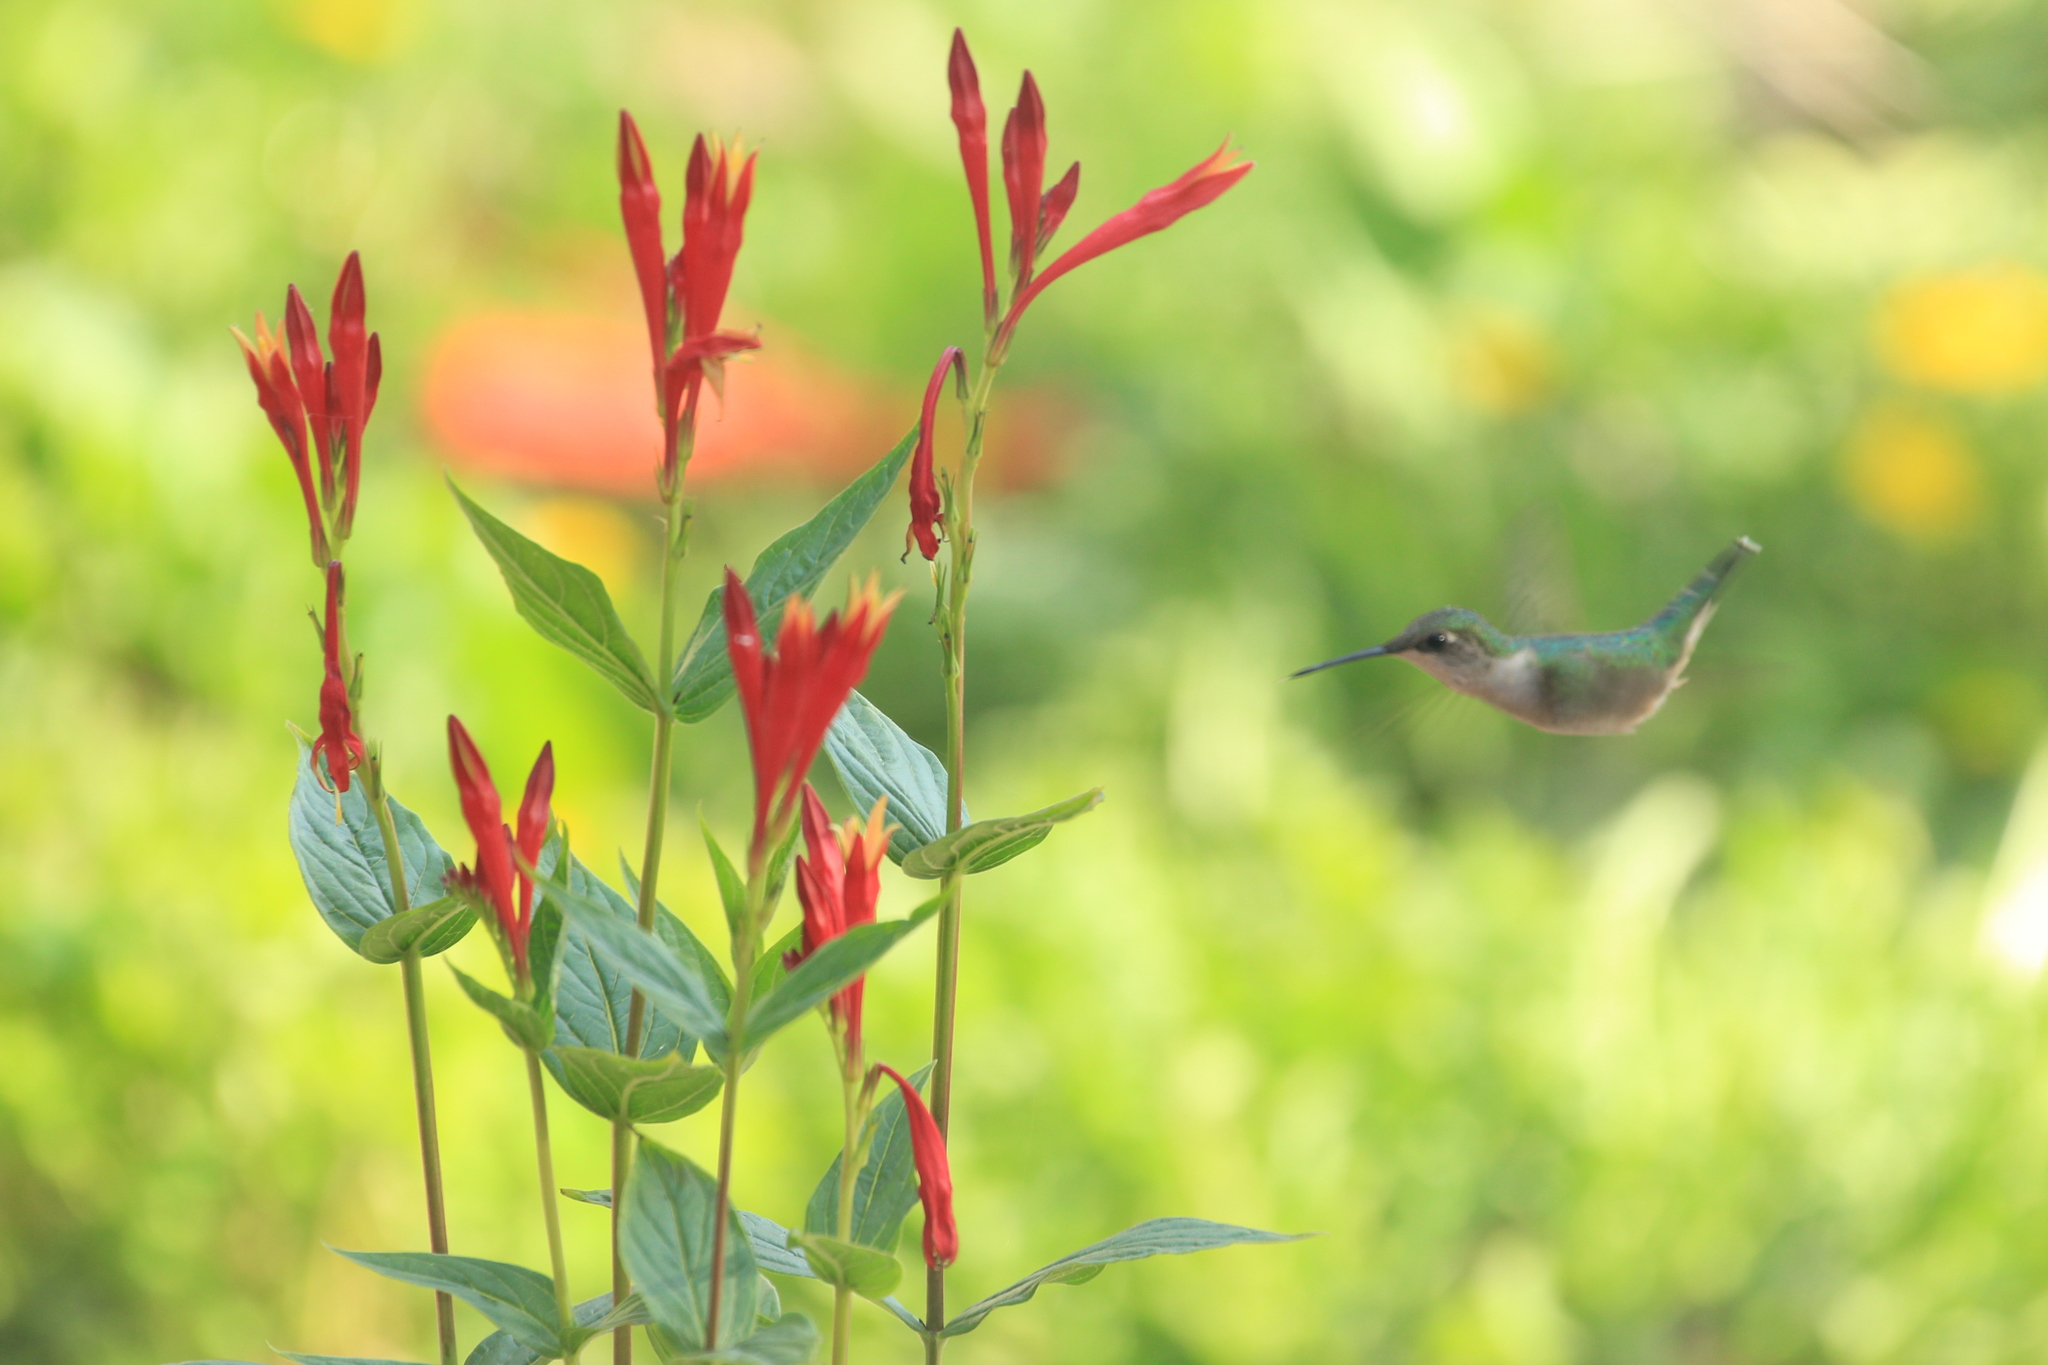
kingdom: Animalia
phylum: Chordata
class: Aves
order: Apodiformes
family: Trochilidae
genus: Archilochus
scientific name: Archilochus colubris
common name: Ruby-throated hummingbird
